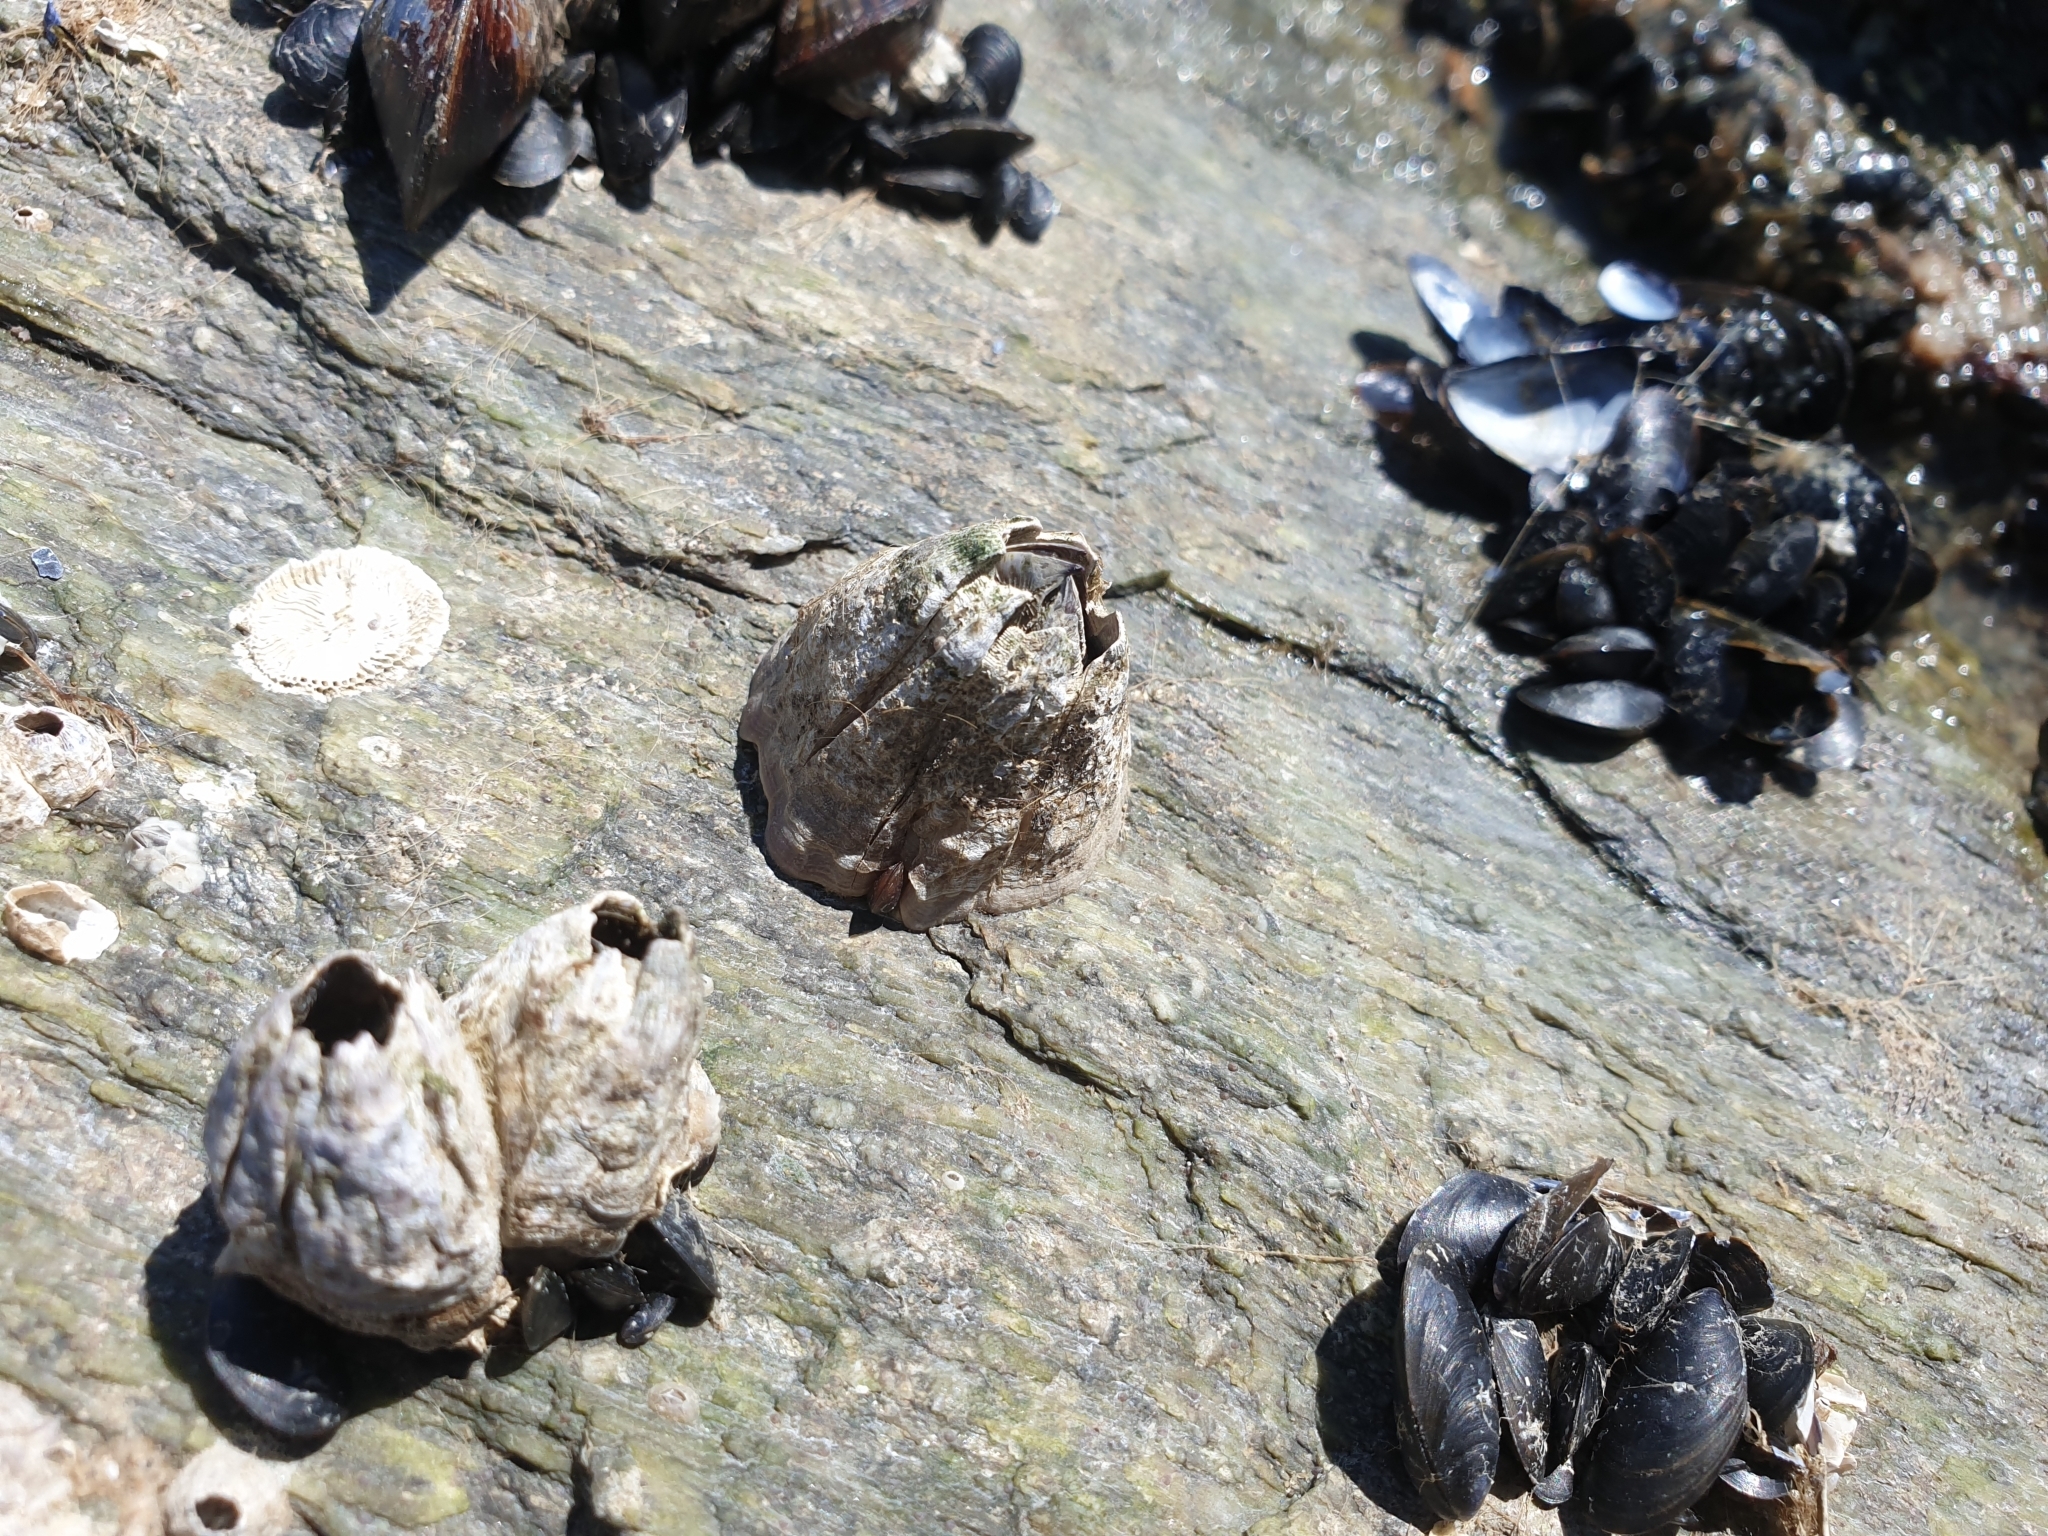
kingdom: Animalia
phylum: Arthropoda
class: Maxillopoda
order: Sessilia
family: Balanidae
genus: Perforatus
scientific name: Perforatus perforatus
